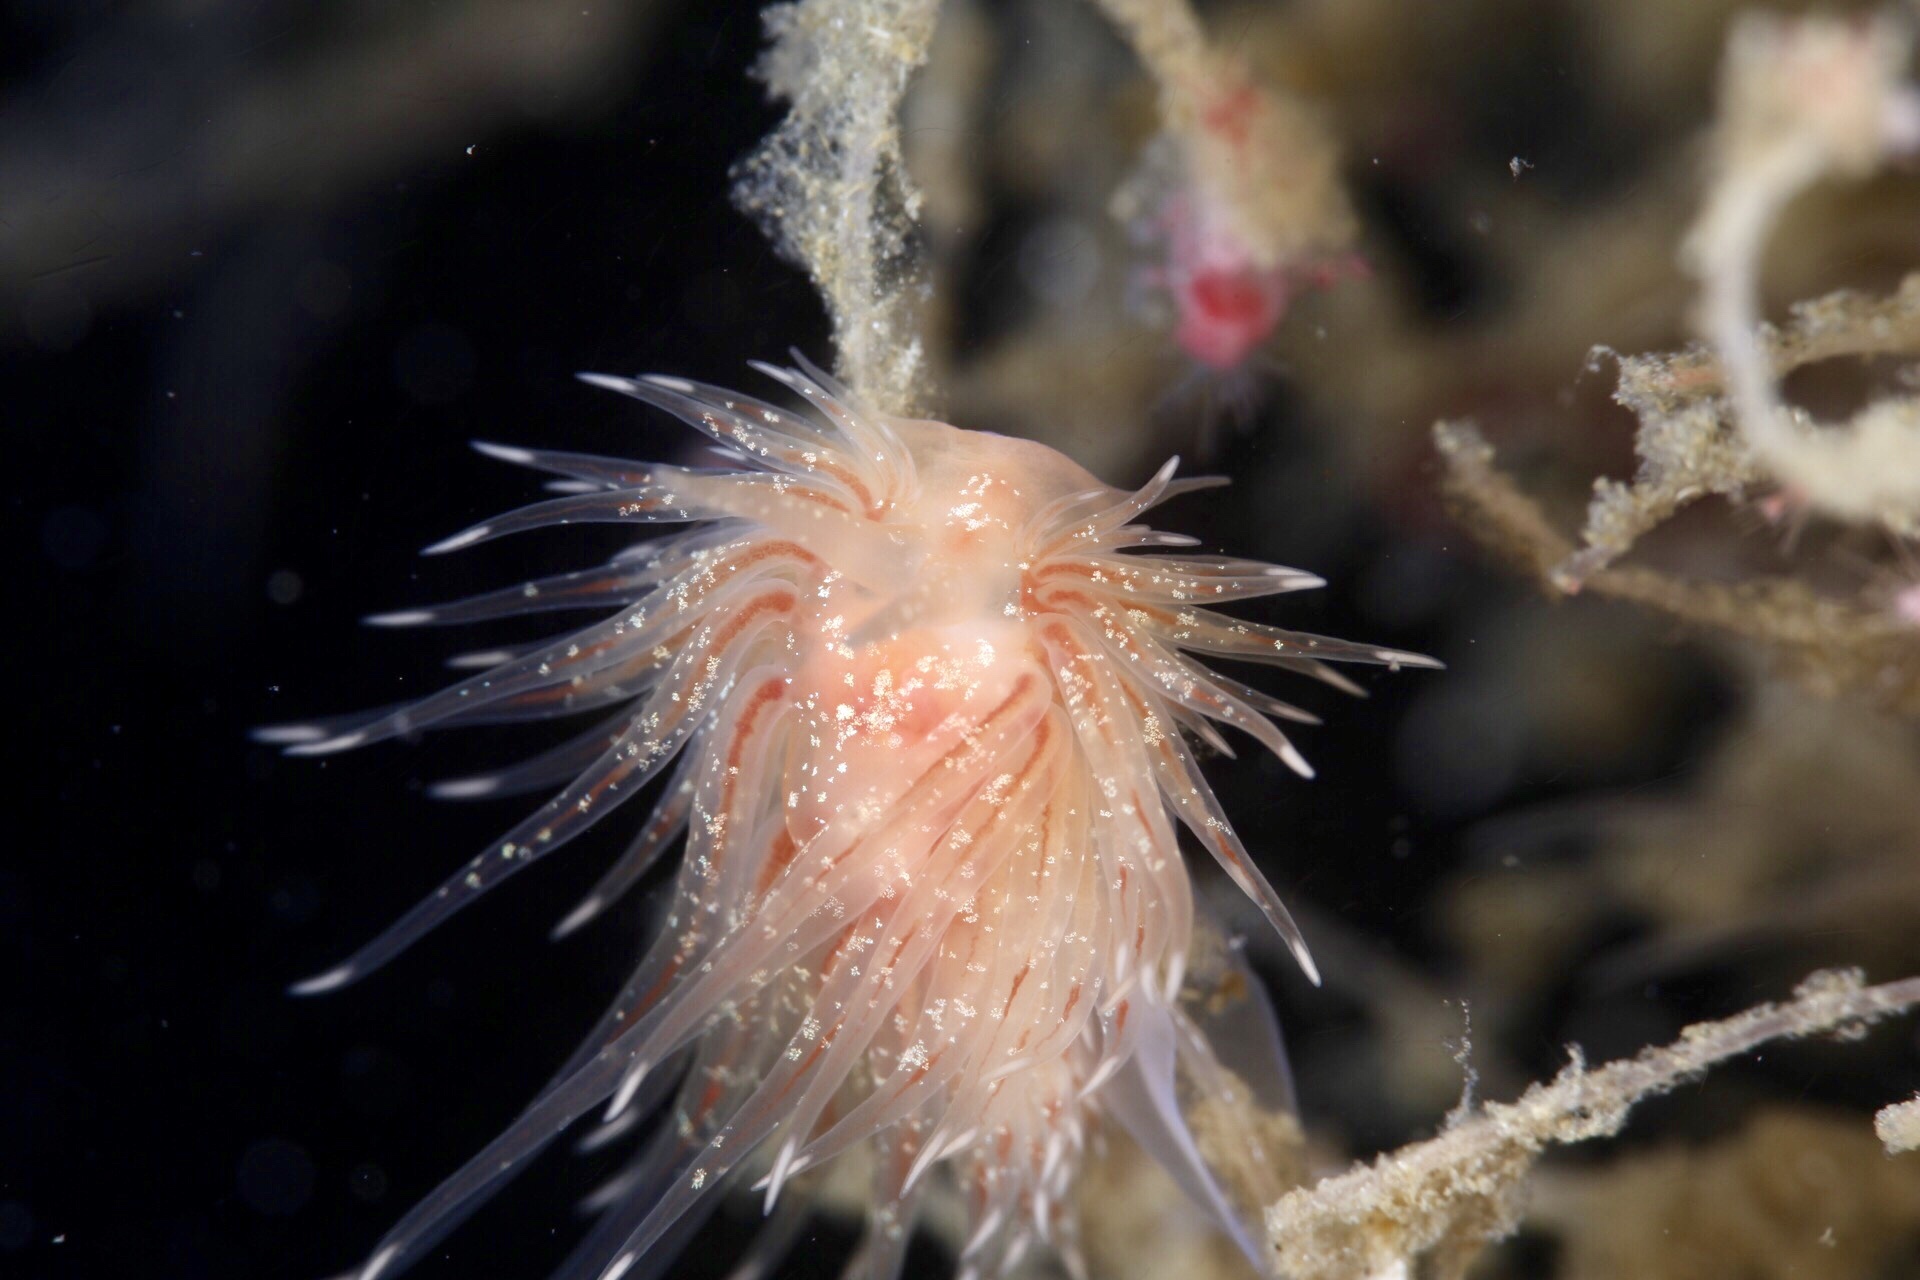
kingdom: Animalia
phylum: Mollusca
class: Gastropoda
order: Nudibranchia
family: Cumanotidae
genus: Cumanotus
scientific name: Cumanotus beaumonti
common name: Polyp aeolis
